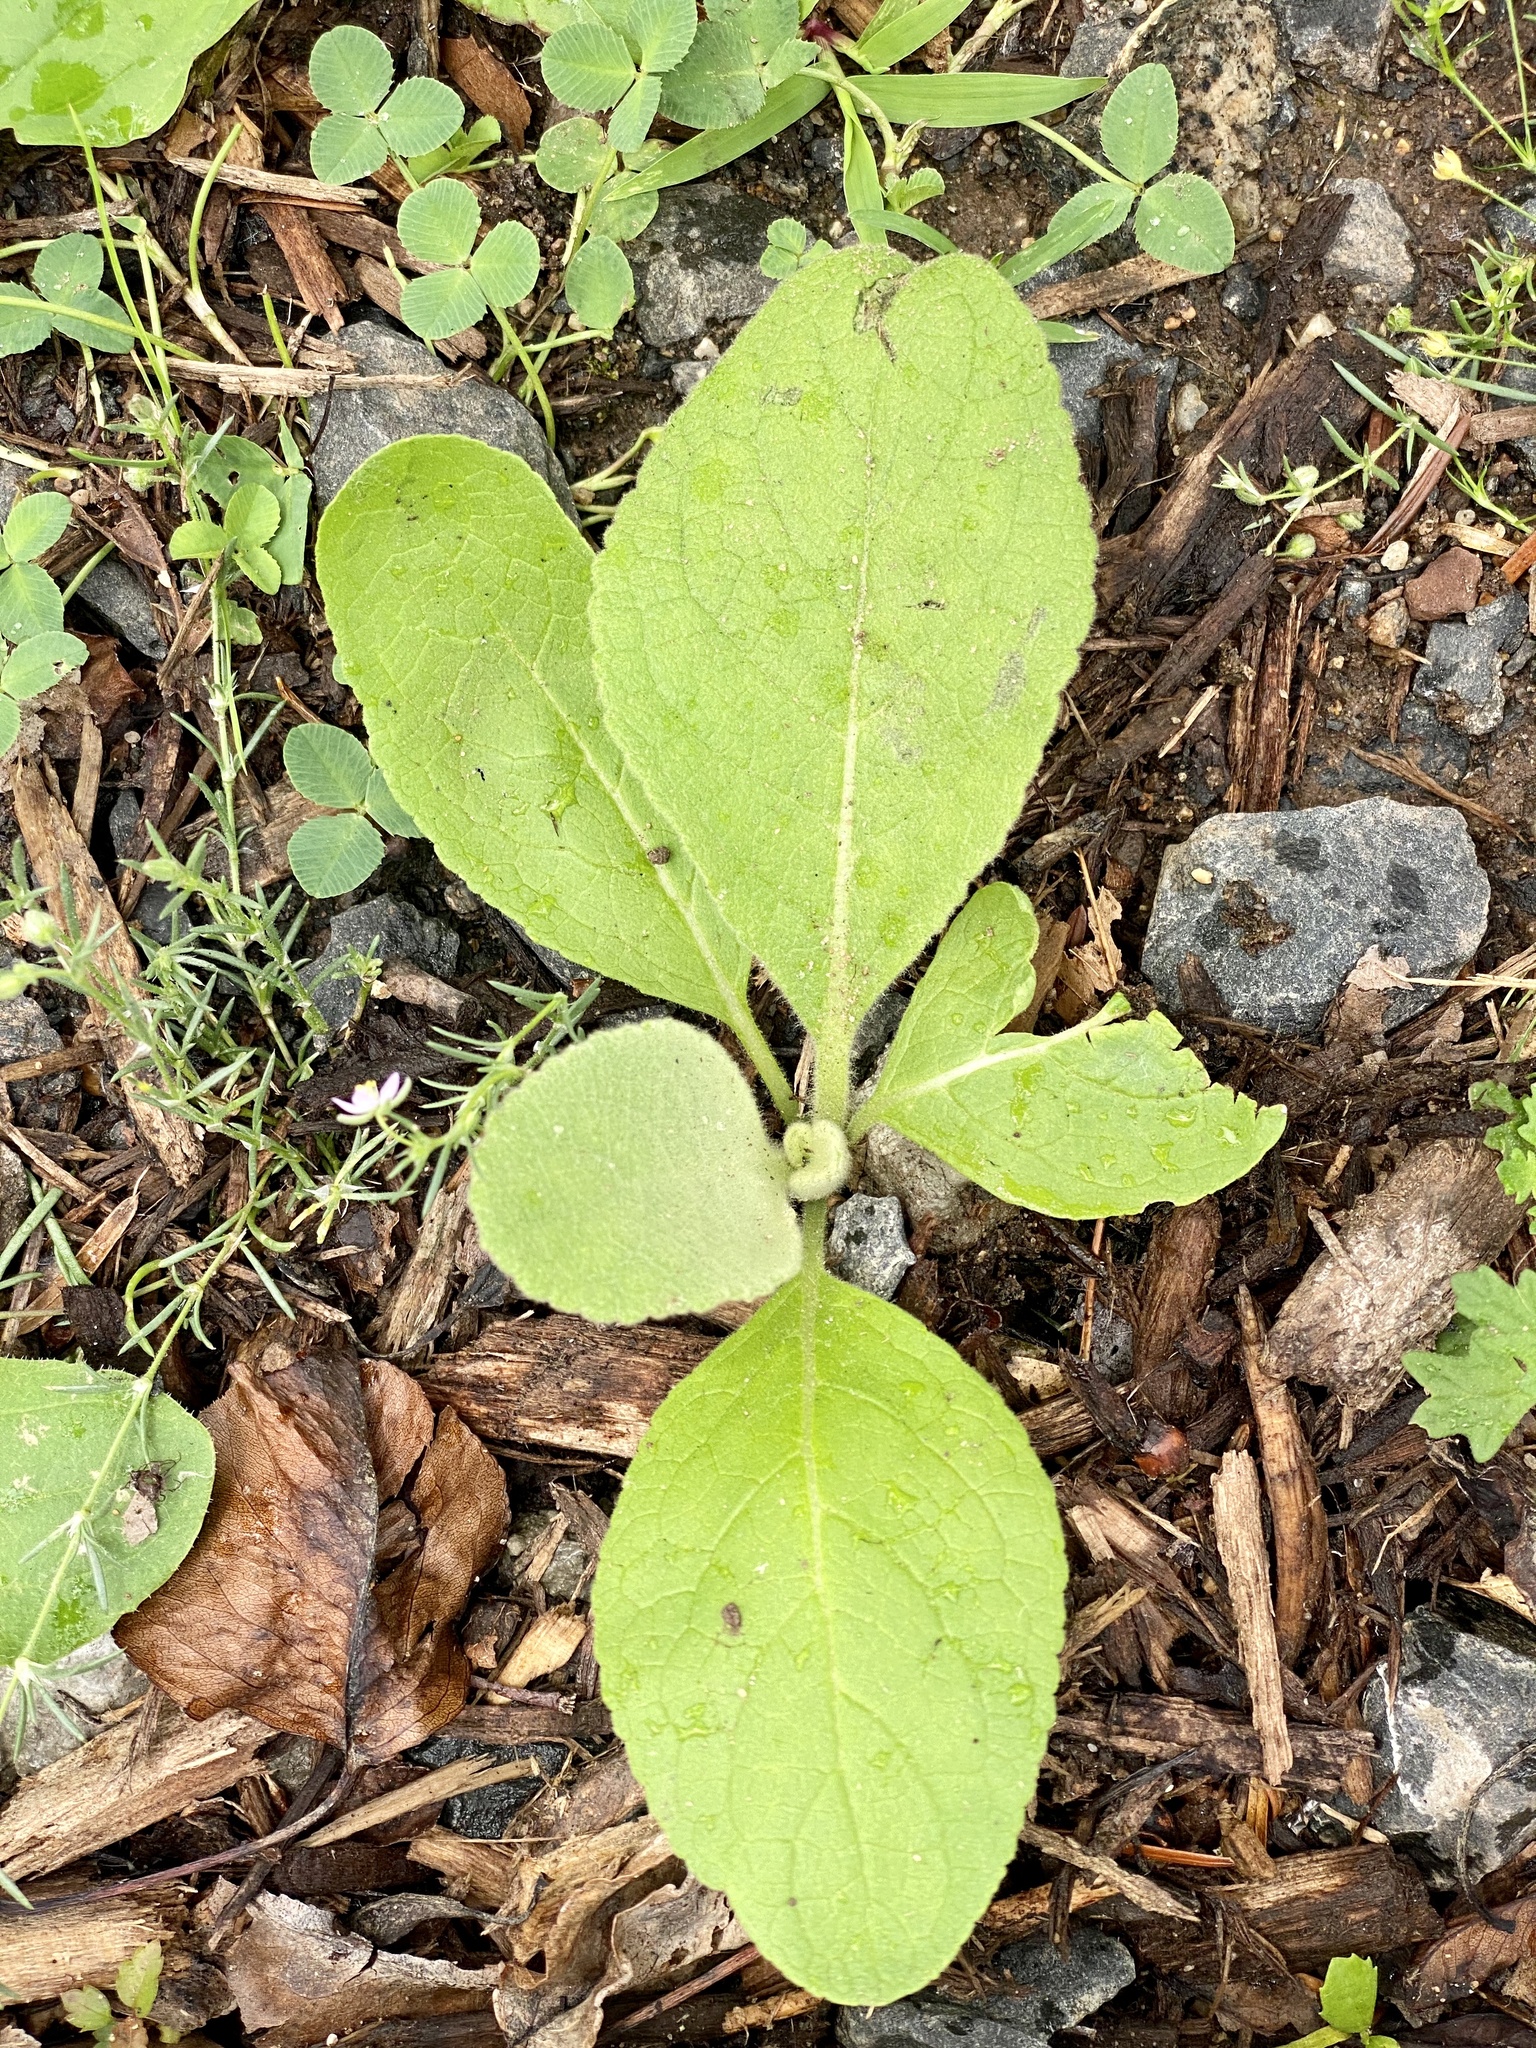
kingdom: Plantae
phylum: Tracheophyta
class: Magnoliopsida
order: Lamiales
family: Scrophulariaceae
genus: Verbascum
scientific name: Verbascum thapsus
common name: Common mullein
